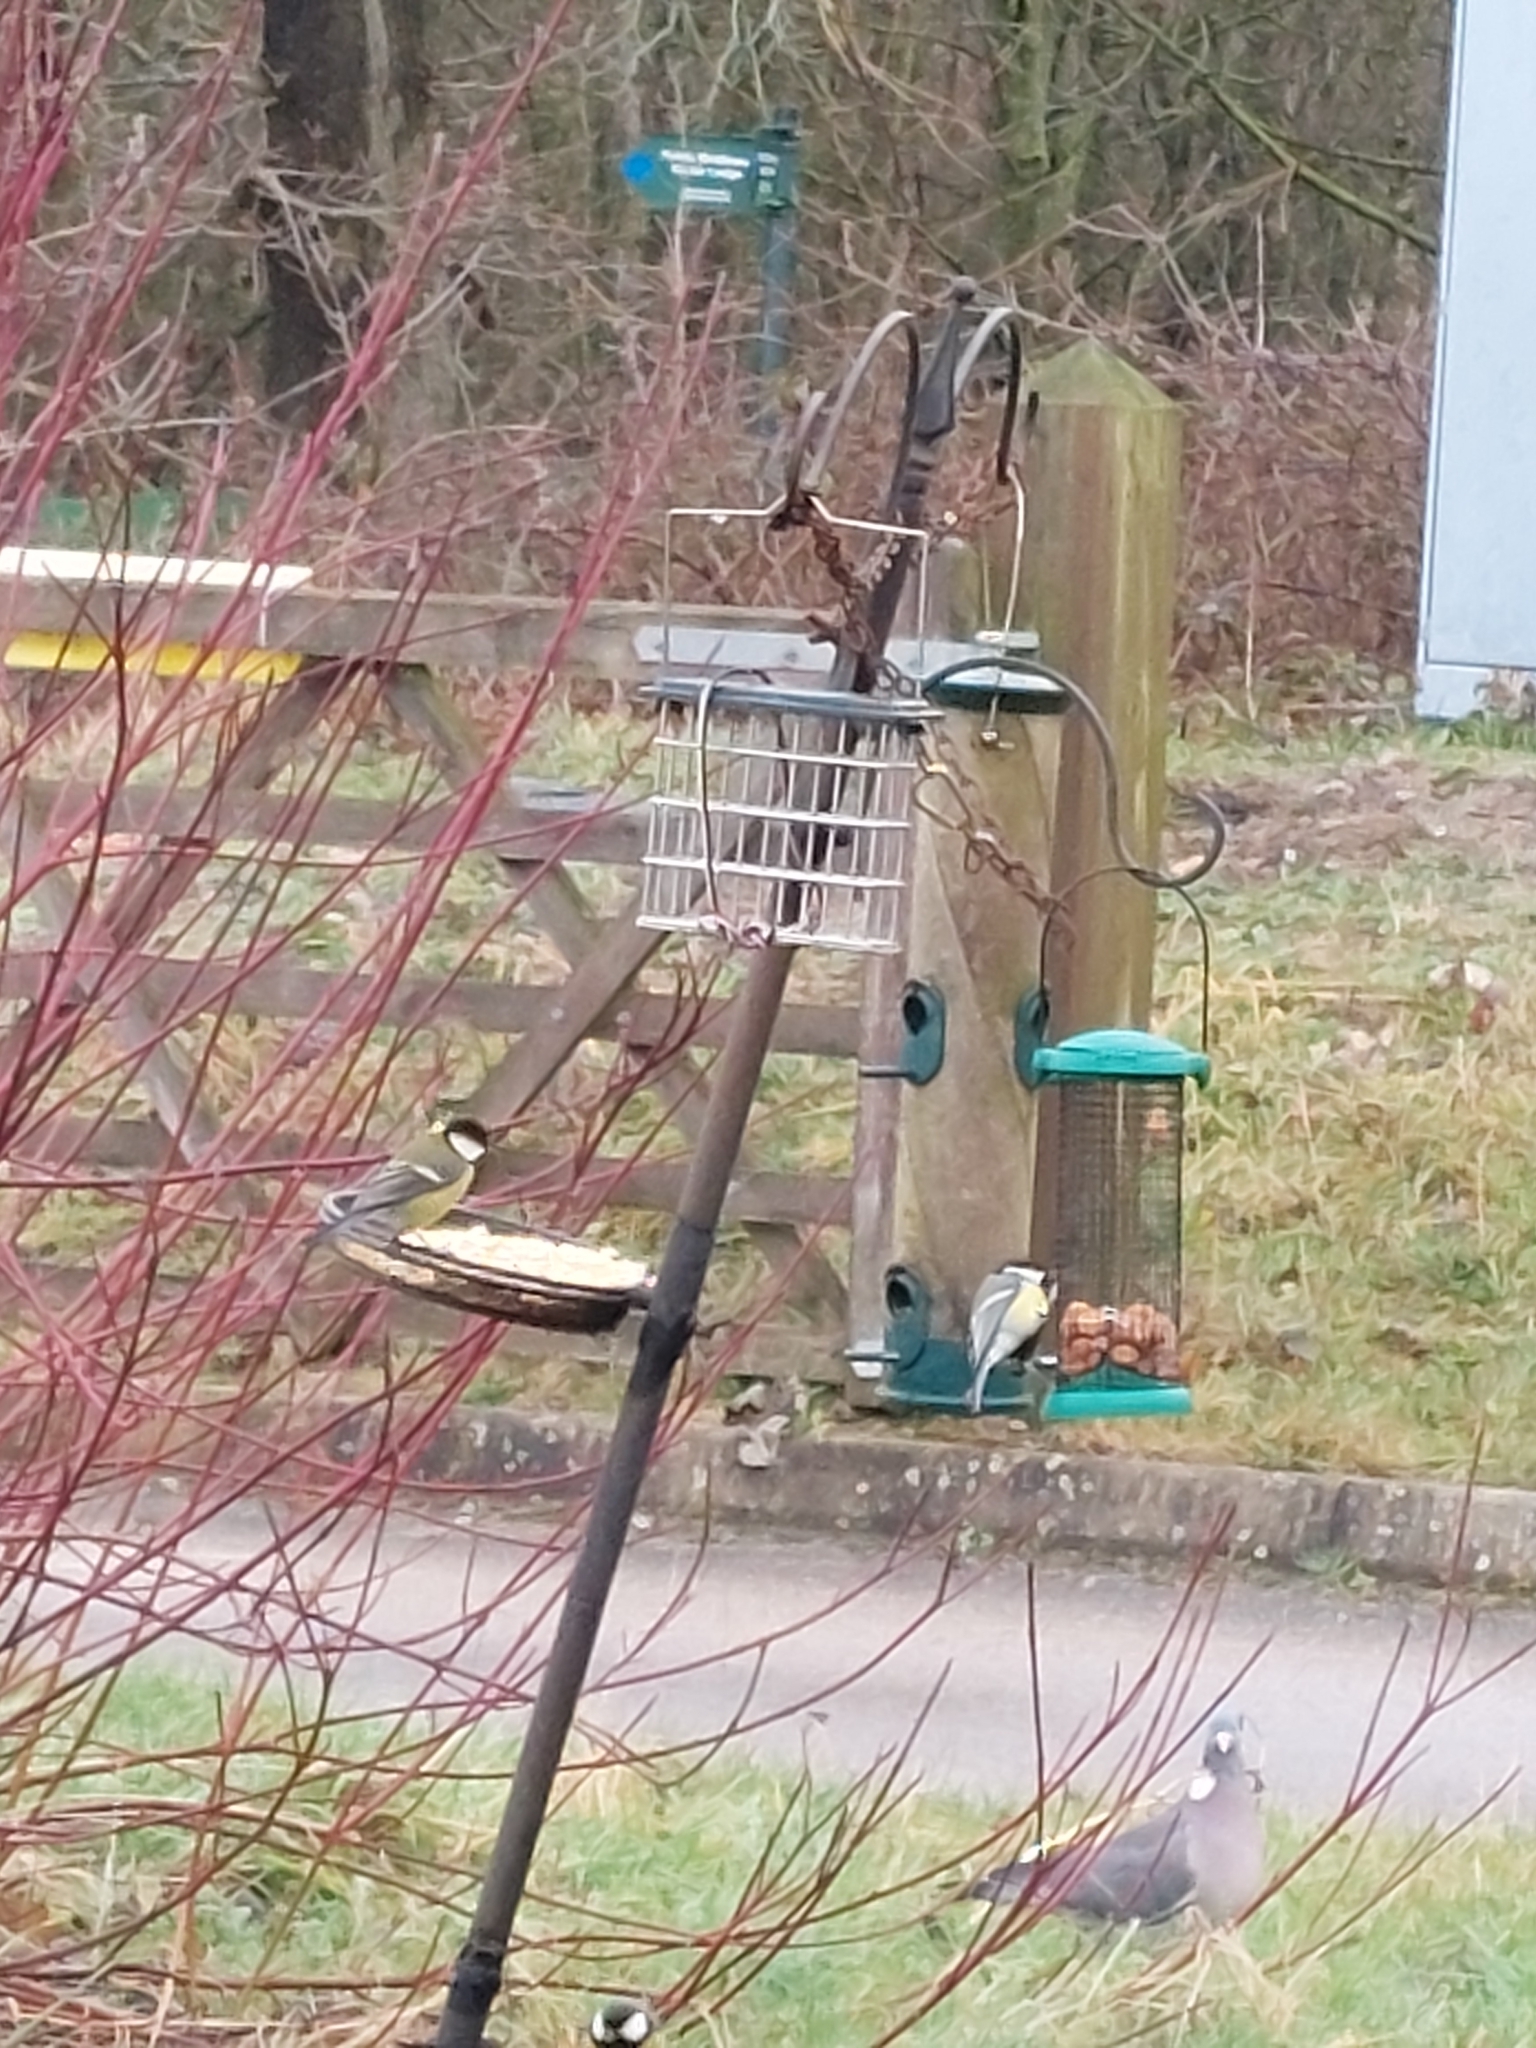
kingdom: Animalia
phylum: Chordata
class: Aves
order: Passeriformes
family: Paridae
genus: Parus
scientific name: Parus major
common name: Great tit
